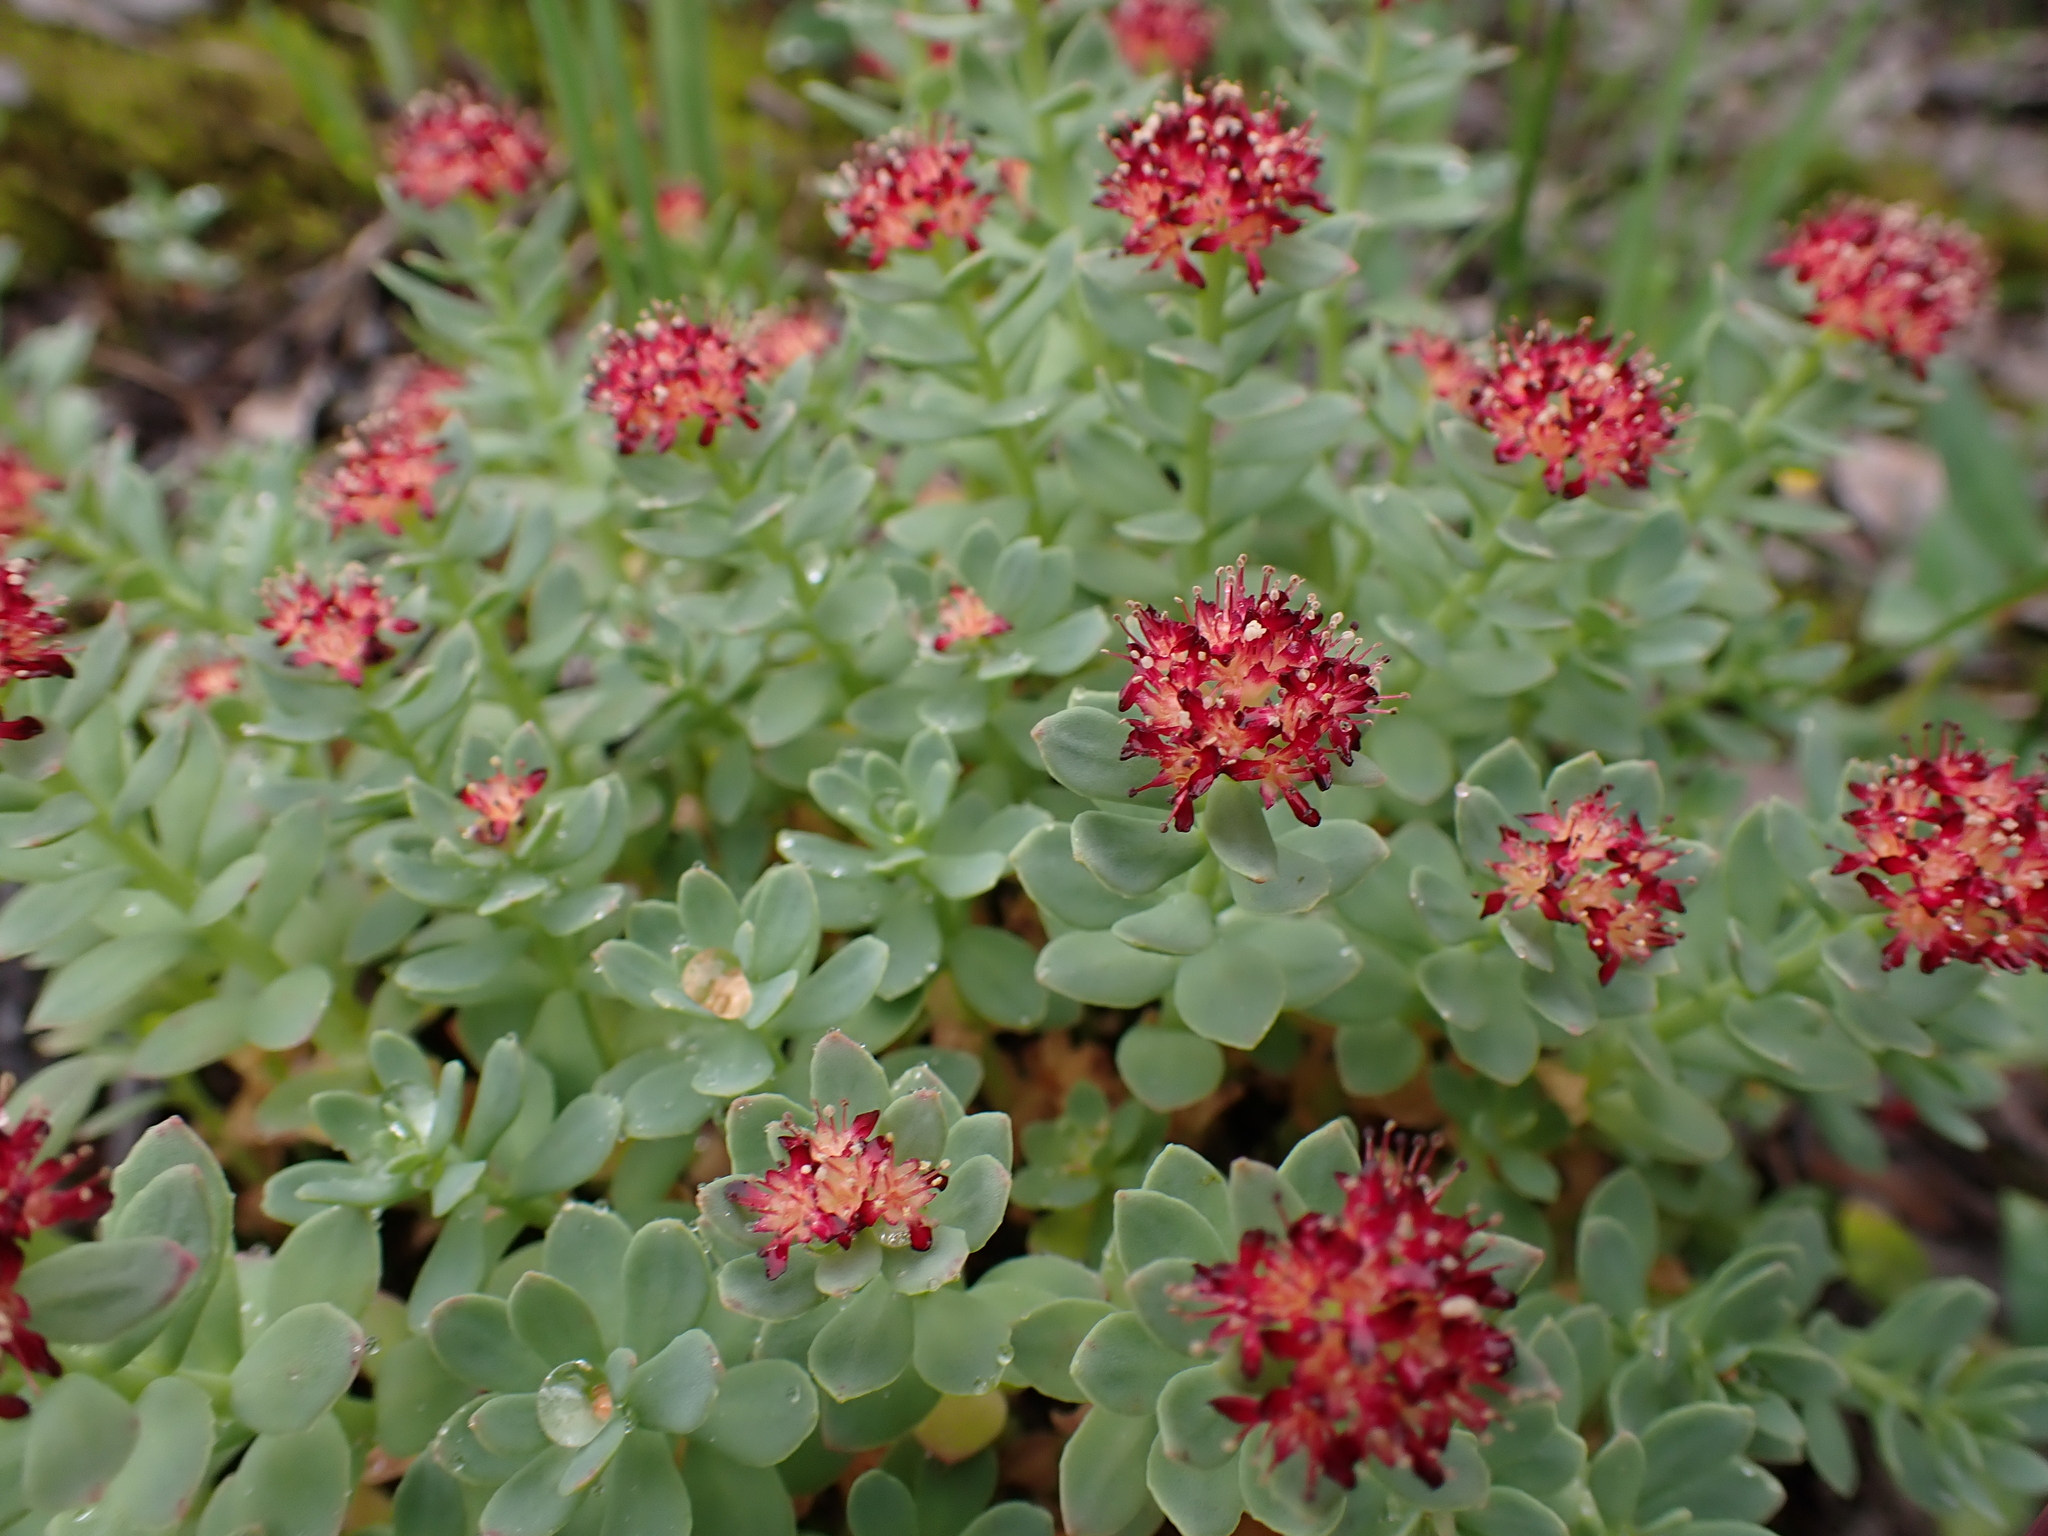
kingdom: Plantae
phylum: Tracheophyta
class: Magnoliopsida
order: Saxifragales
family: Crassulaceae
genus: Rhodiola
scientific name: Rhodiola integrifolia
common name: Western roseroot
